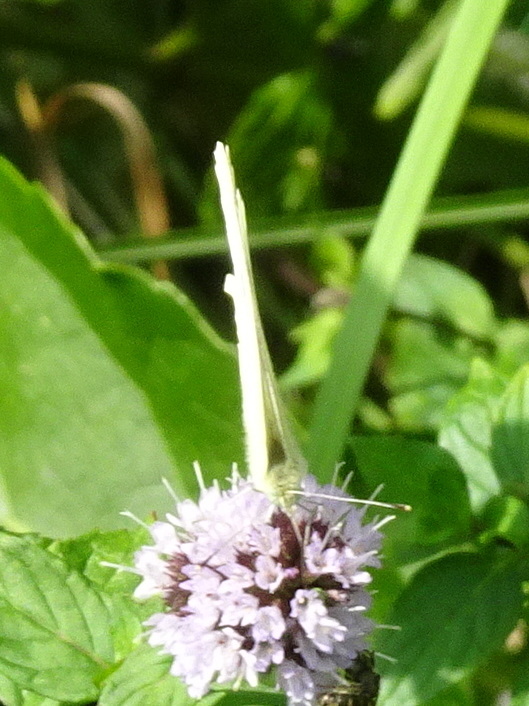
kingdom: Animalia
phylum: Arthropoda
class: Insecta
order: Lepidoptera
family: Pieridae
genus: Pieris
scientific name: Pieris rapae
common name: Small white
